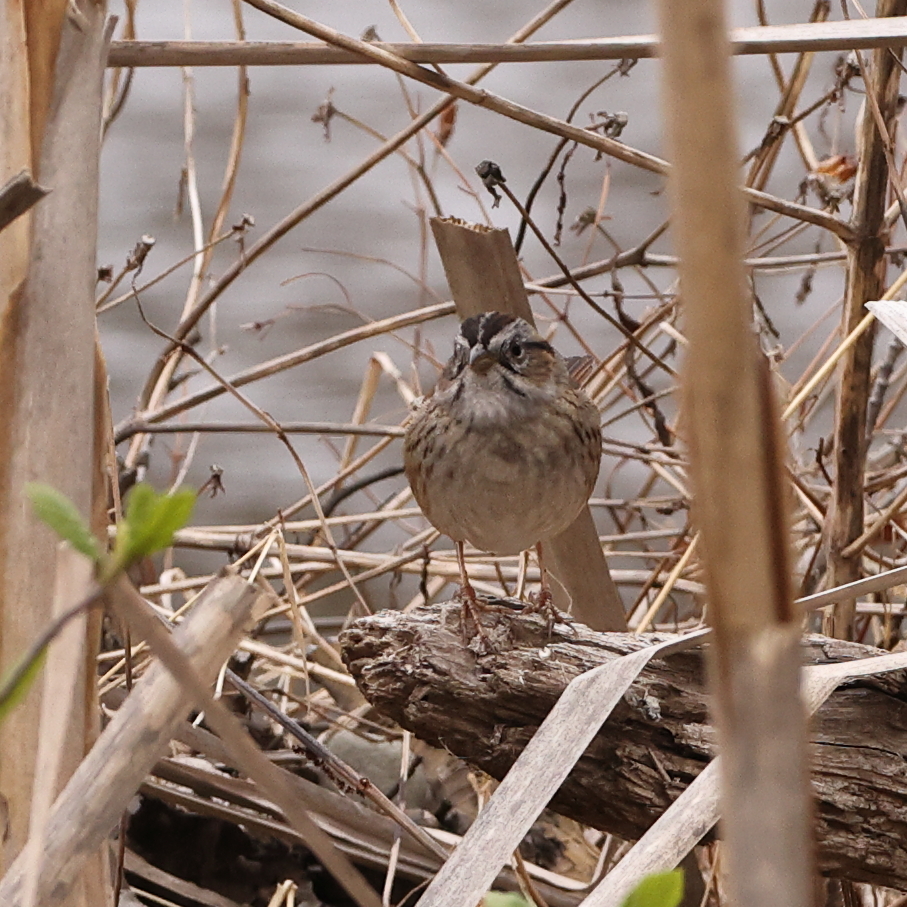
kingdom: Animalia
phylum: Chordata
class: Aves
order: Passeriformes
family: Passerellidae
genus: Melospiza
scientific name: Melospiza georgiana
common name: Swamp sparrow
